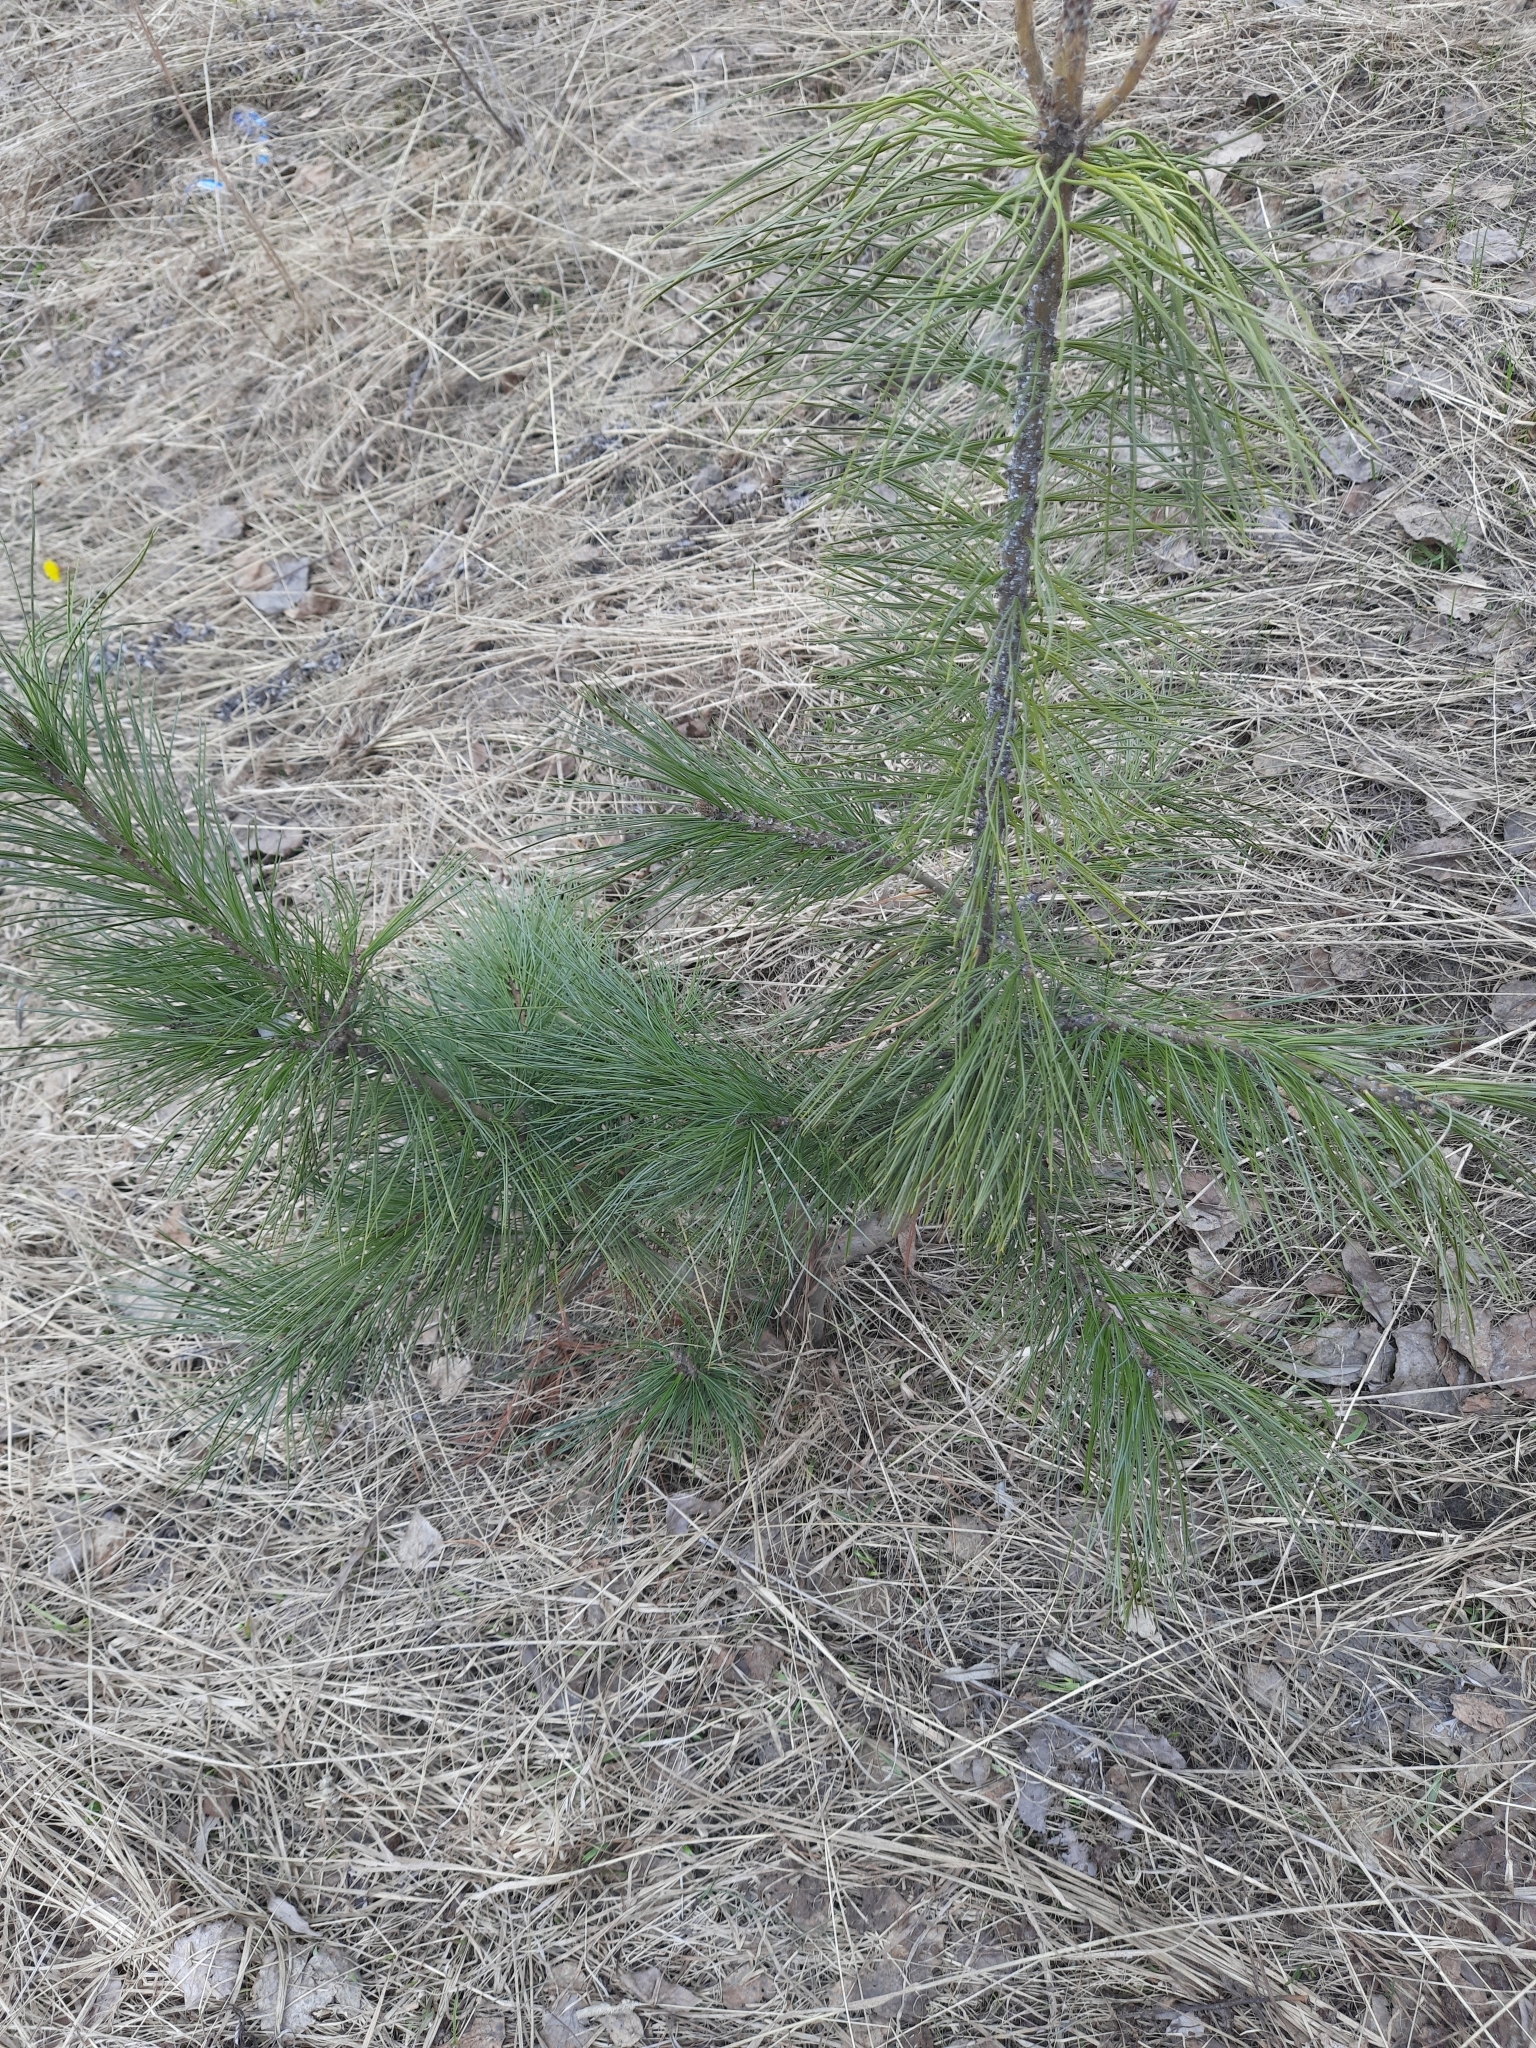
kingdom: Plantae
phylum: Tracheophyta
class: Pinopsida
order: Pinales
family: Pinaceae
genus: Pinus
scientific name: Pinus sibirica
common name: Siberian pine
